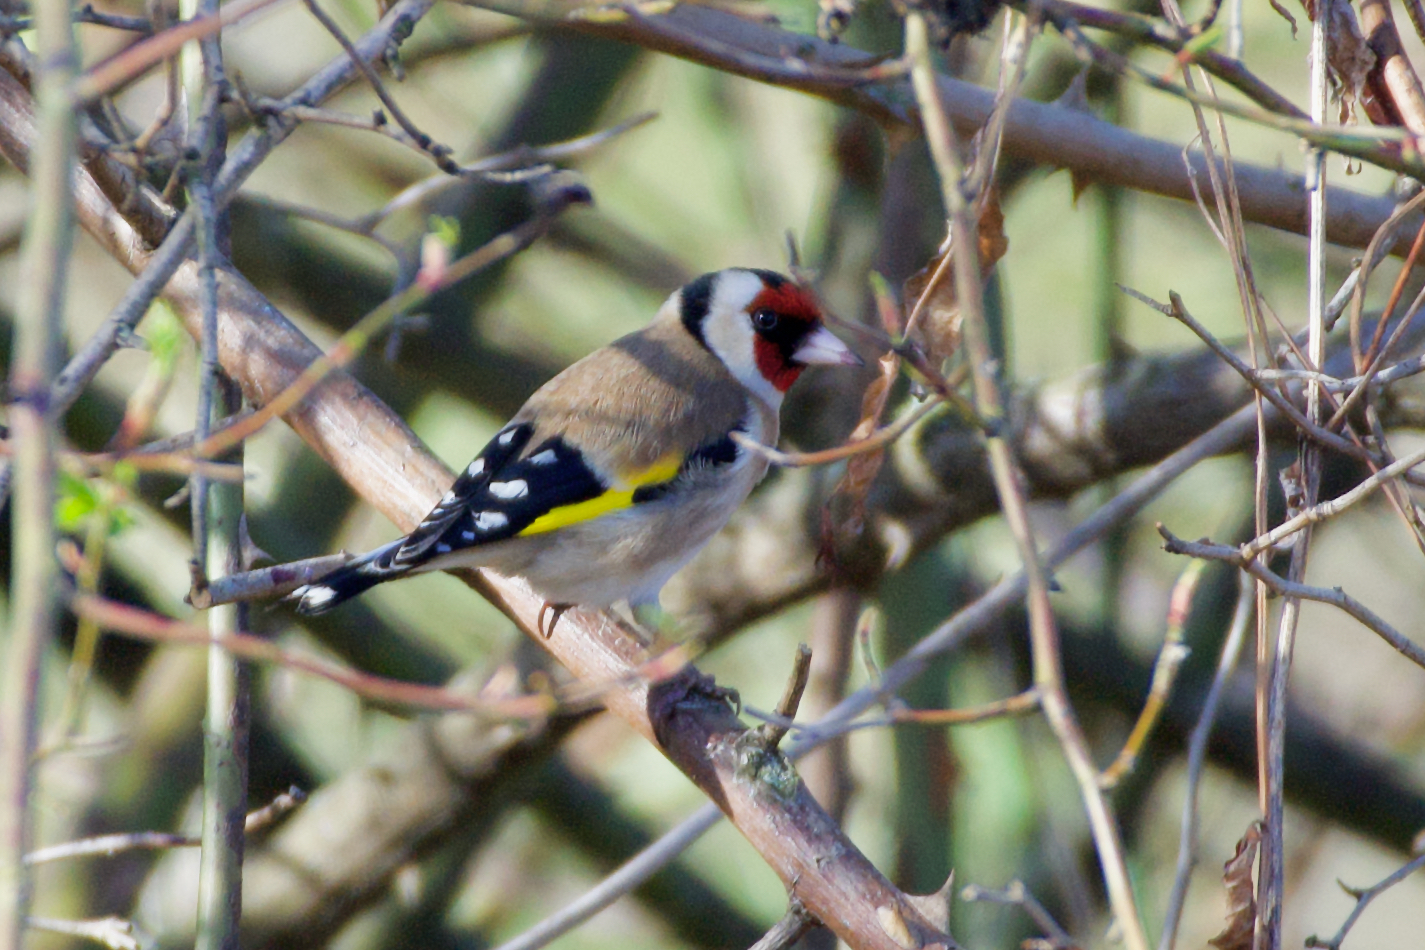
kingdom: Animalia
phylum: Chordata
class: Aves
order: Passeriformes
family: Fringillidae
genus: Carduelis
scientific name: Carduelis carduelis
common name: European goldfinch
